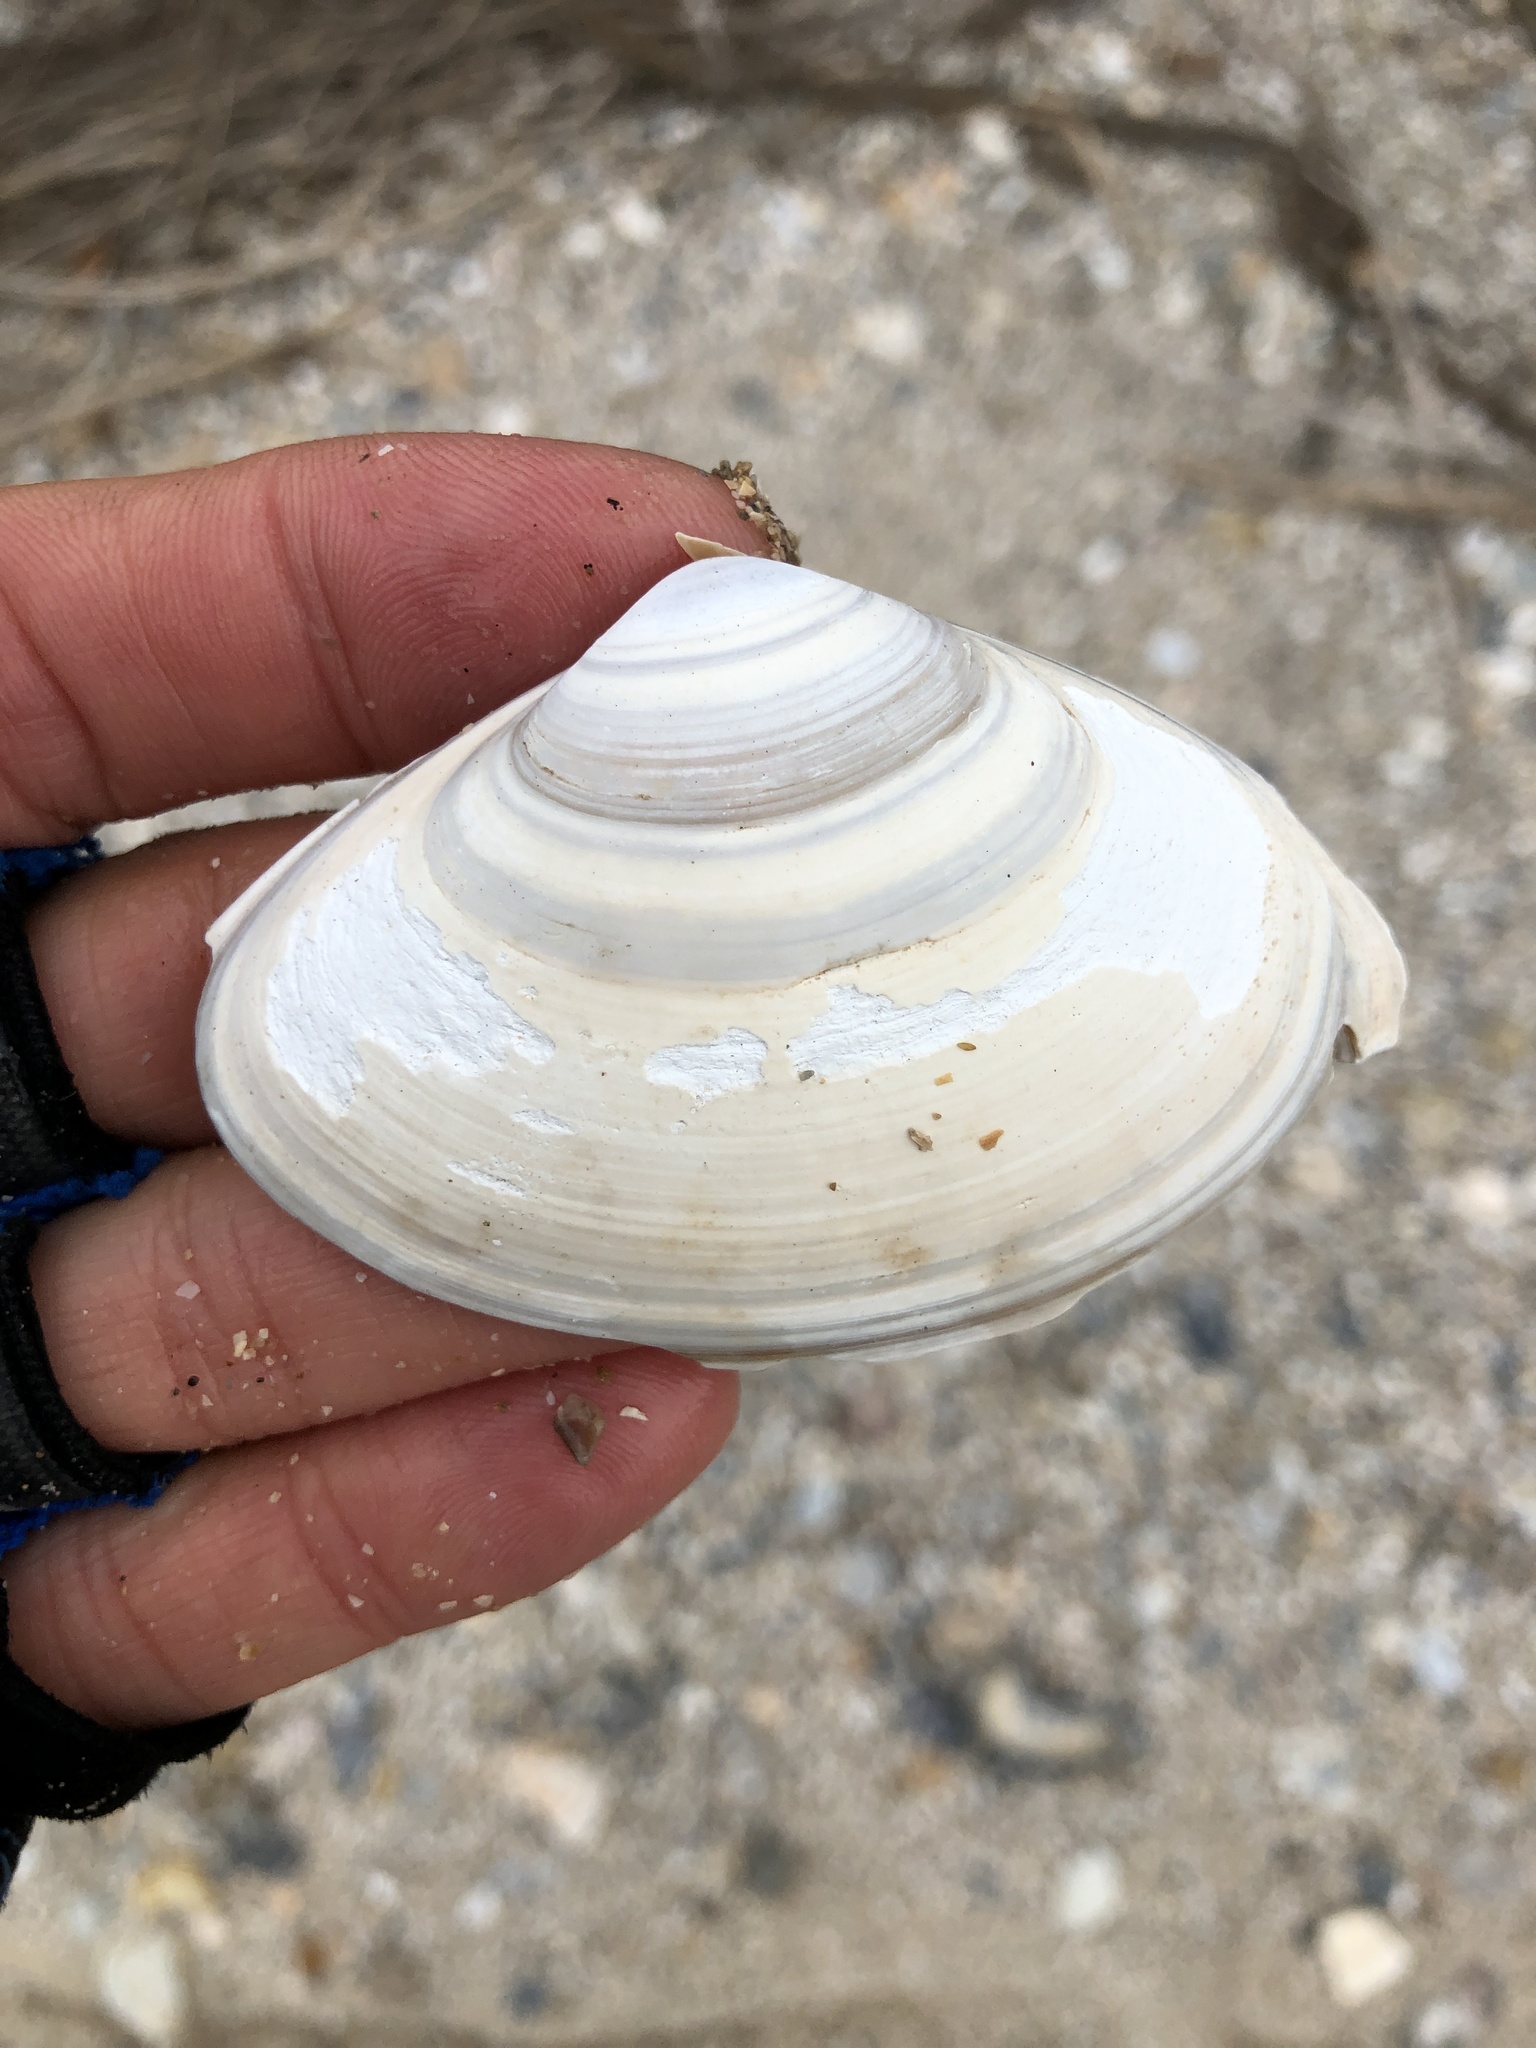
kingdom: Animalia
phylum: Mollusca
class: Bivalvia
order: Venerida
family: Mactridae
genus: Spisula
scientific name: Spisula raveneli
